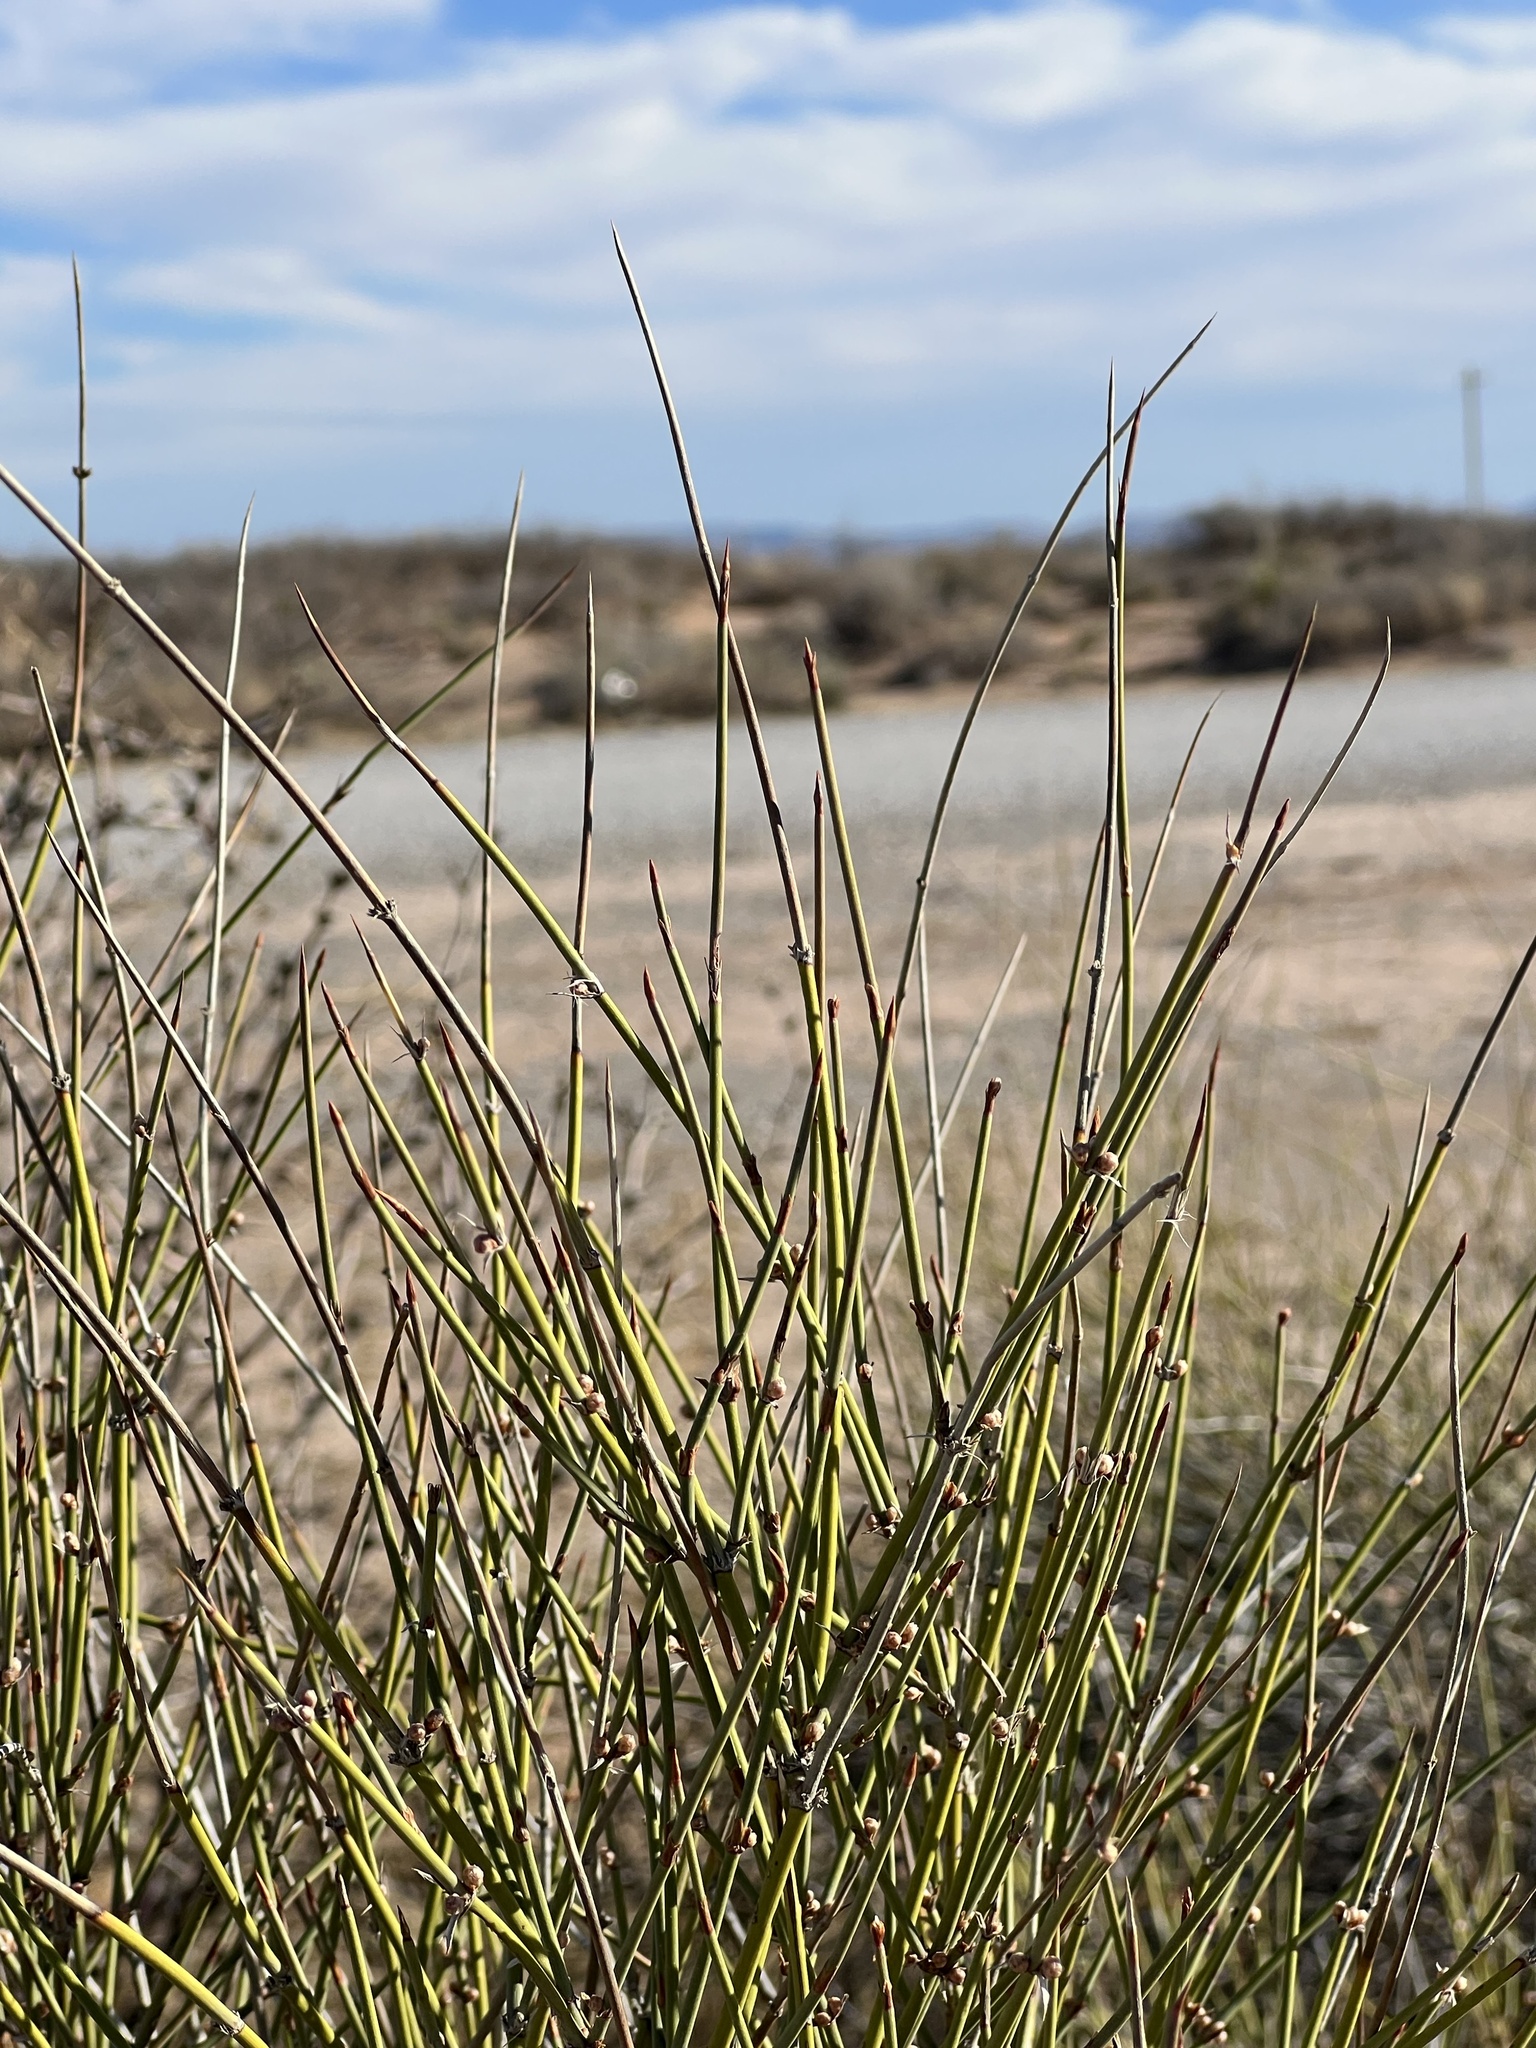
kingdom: Plantae
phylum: Tracheophyta
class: Gnetopsida
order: Ephedrales
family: Ephedraceae
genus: Ephedra
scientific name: Ephedra trifurca
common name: Mexican-tea
